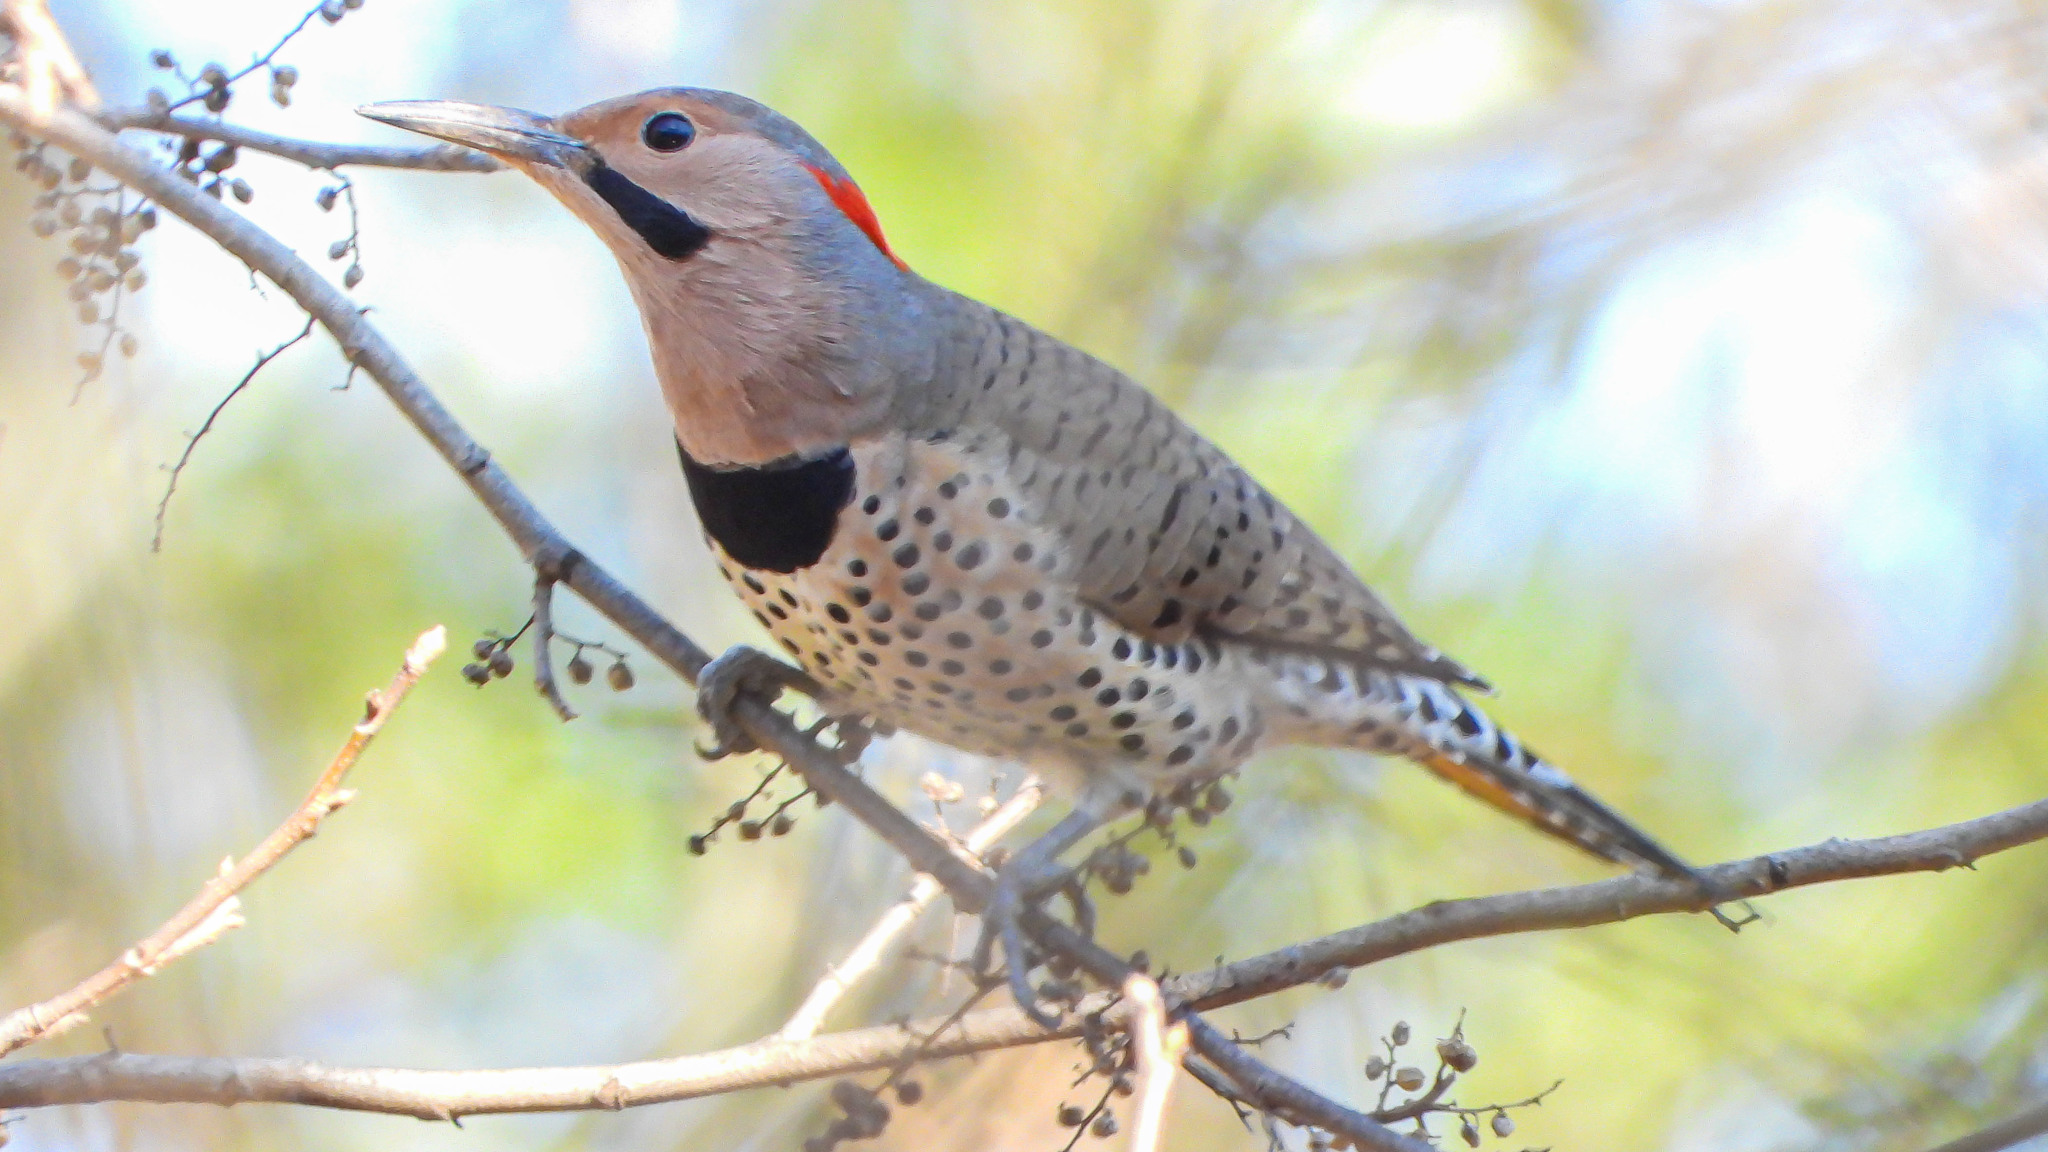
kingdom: Animalia
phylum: Chordata
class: Aves
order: Piciformes
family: Picidae
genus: Colaptes
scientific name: Colaptes auratus
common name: Northern flicker
